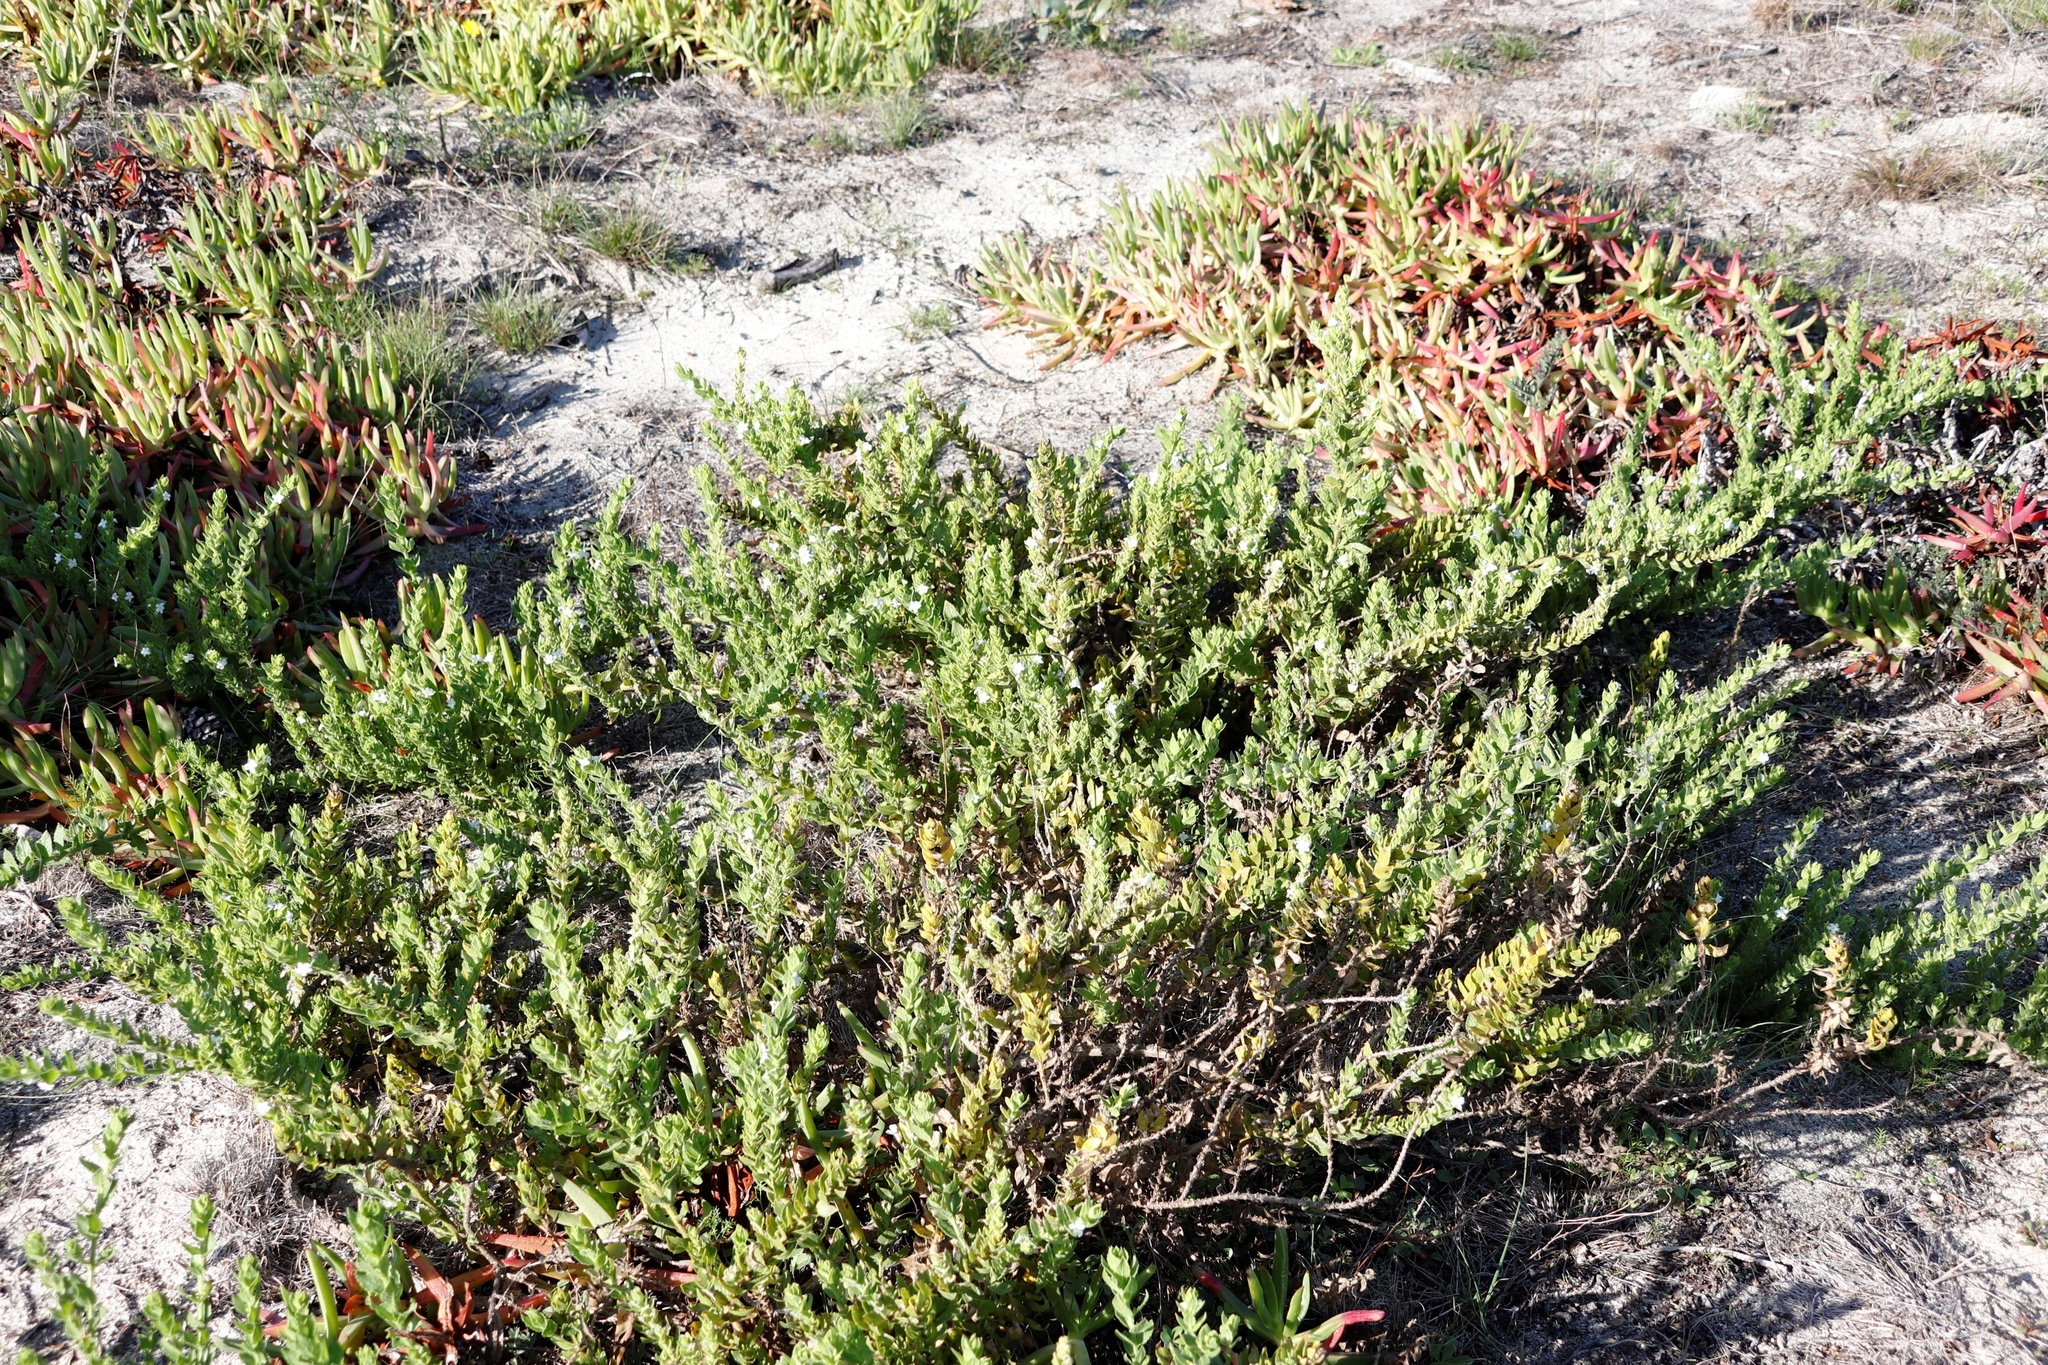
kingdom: Plantae
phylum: Tracheophyta
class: Magnoliopsida
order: Lamiales
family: Scrophulariaceae
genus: Oftia
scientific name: Oftia africana
